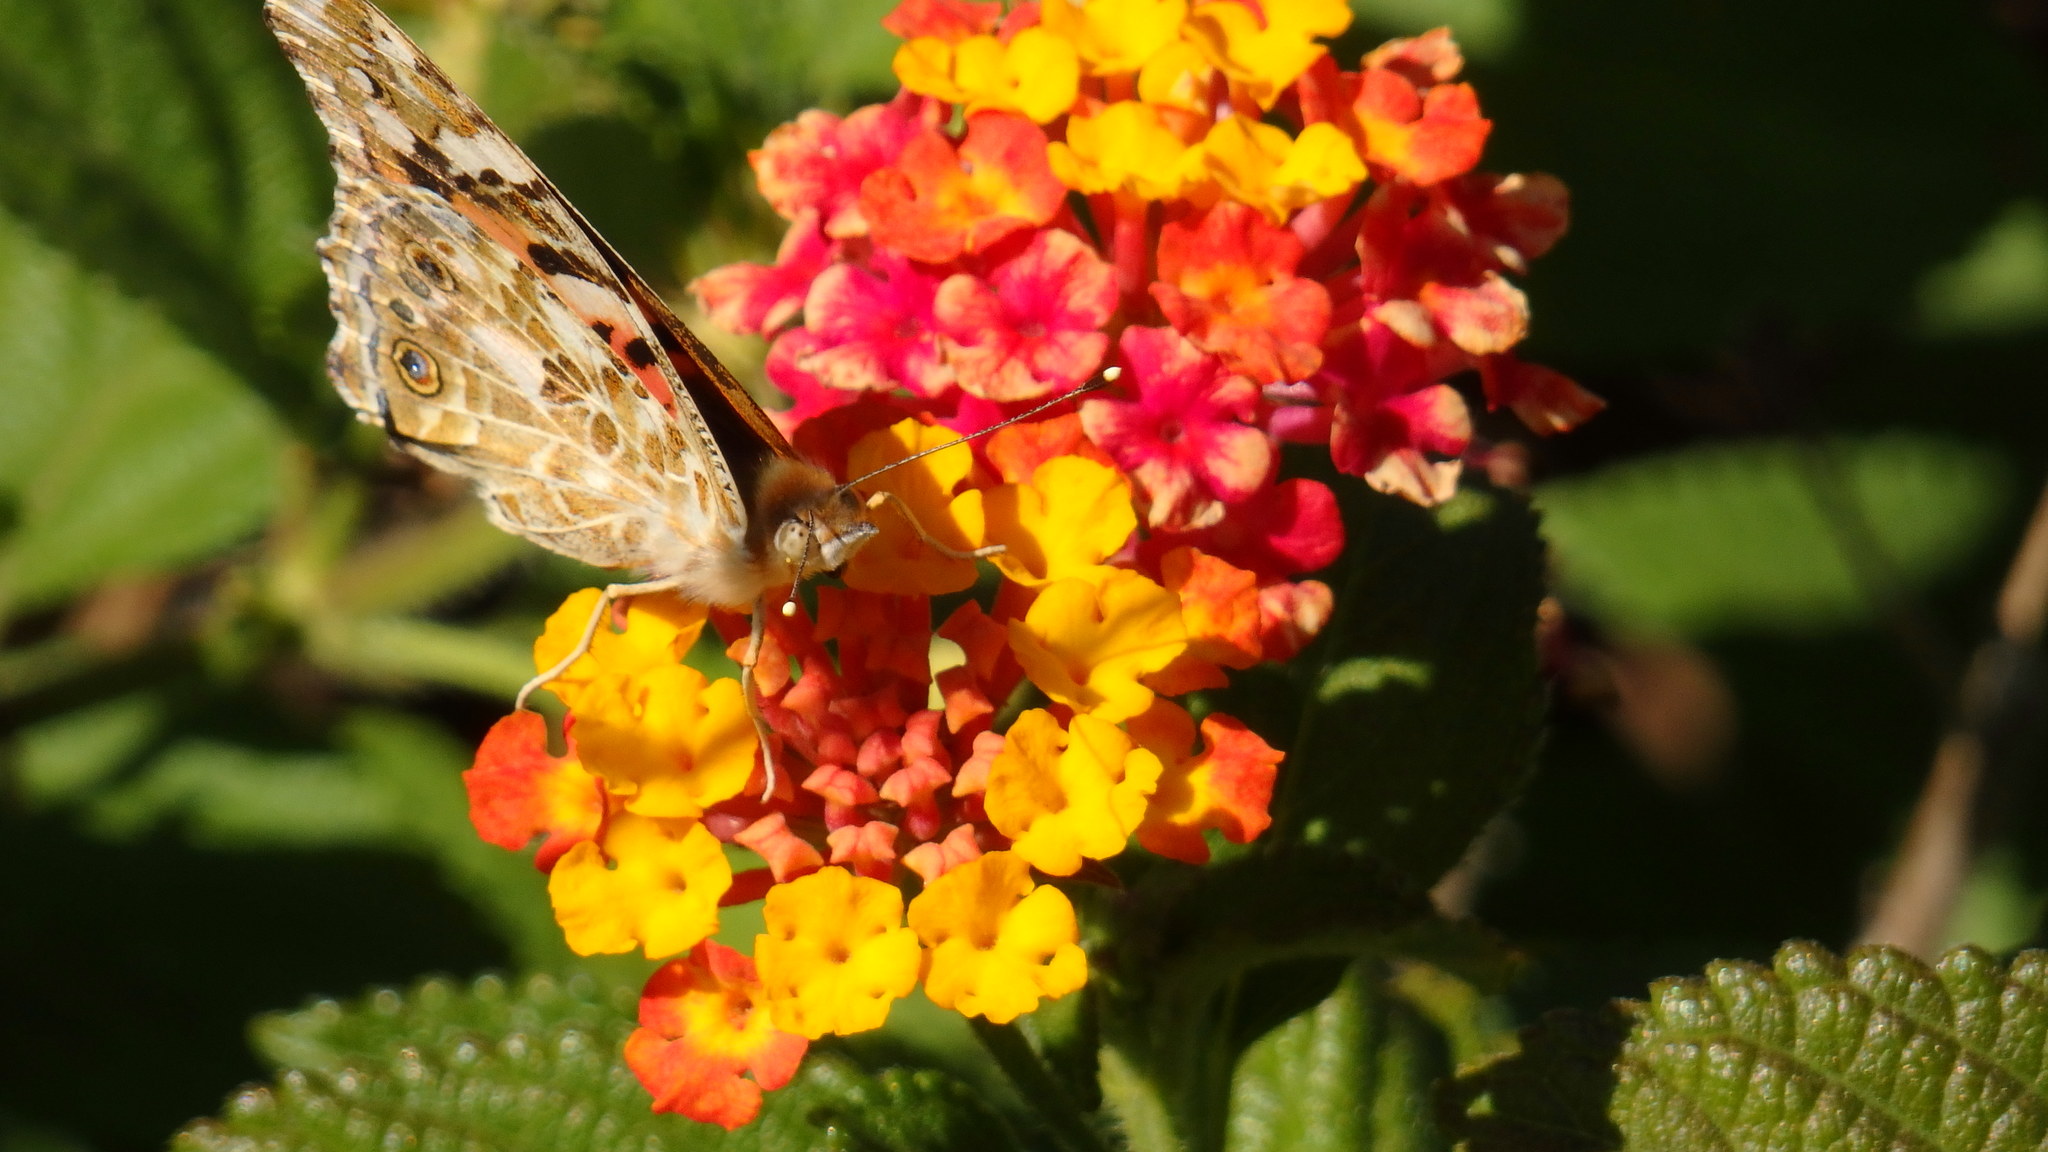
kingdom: Animalia
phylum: Arthropoda
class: Insecta
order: Lepidoptera
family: Nymphalidae
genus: Vanessa
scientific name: Vanessa cardui
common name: Painted lady
